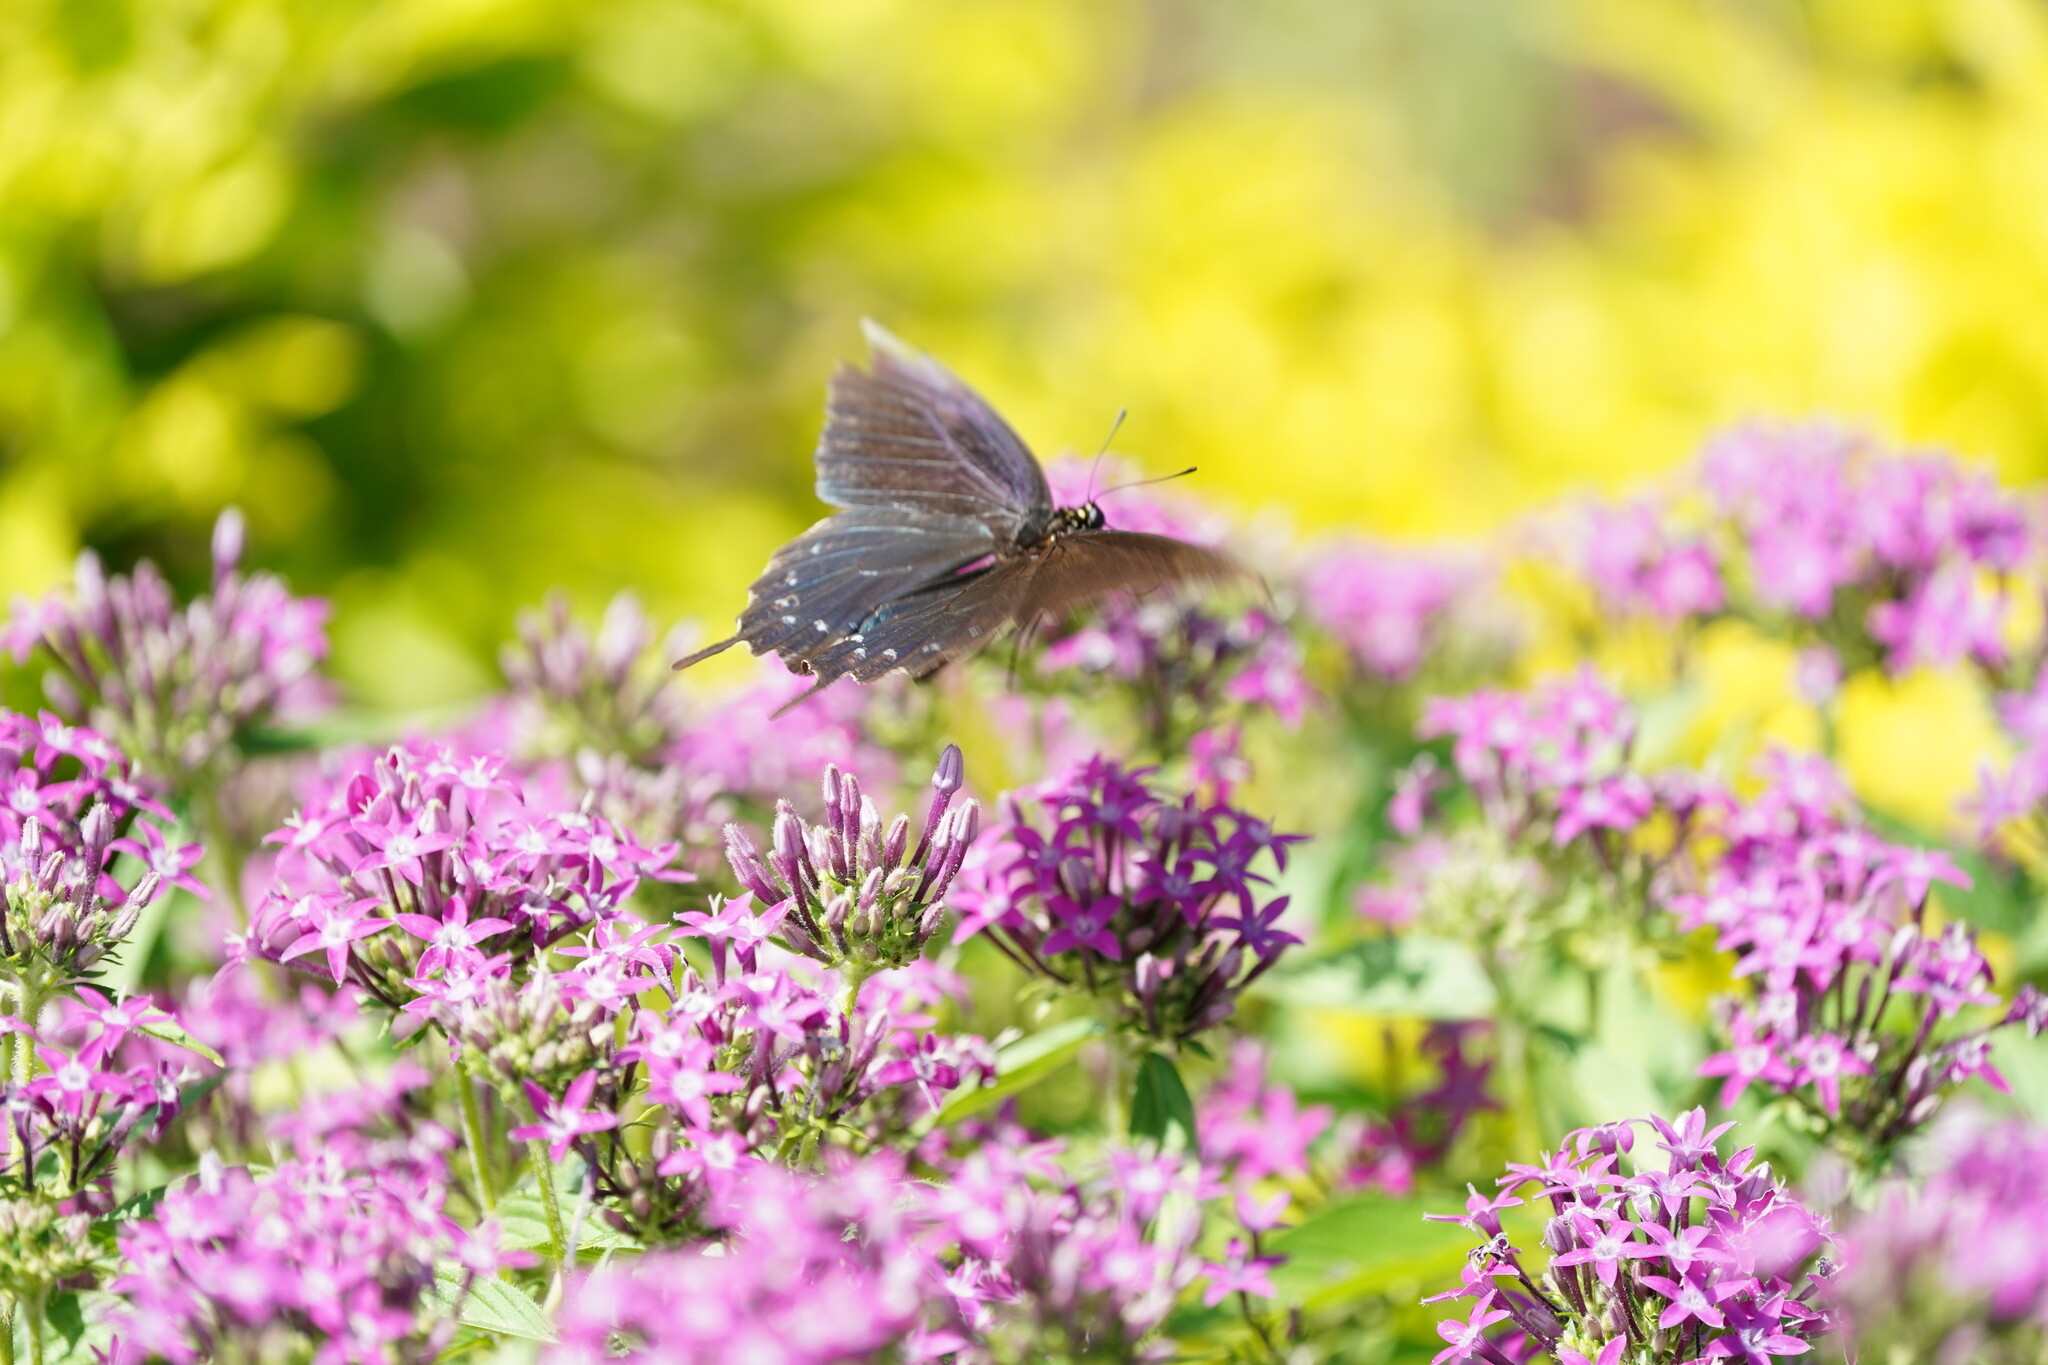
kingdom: Animalia
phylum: Arthropoda
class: Insecta
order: Lepidoptera
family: Papilionidae
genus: Battus
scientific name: Battus philenor
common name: Pipevine swallowtail
